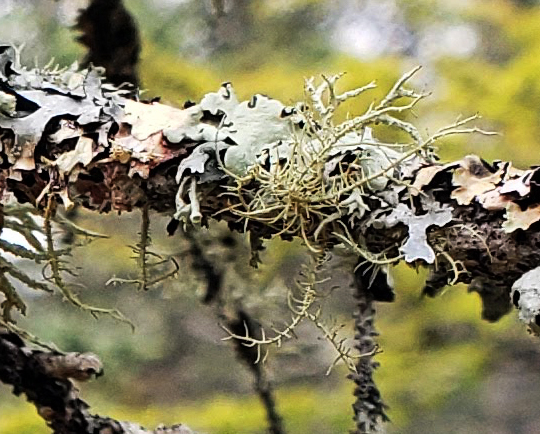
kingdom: Fungi
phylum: Ascomycota
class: Lecanoromycetes
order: Lecanorales
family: Parmeliaceae
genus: Usnea
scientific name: Usnea
